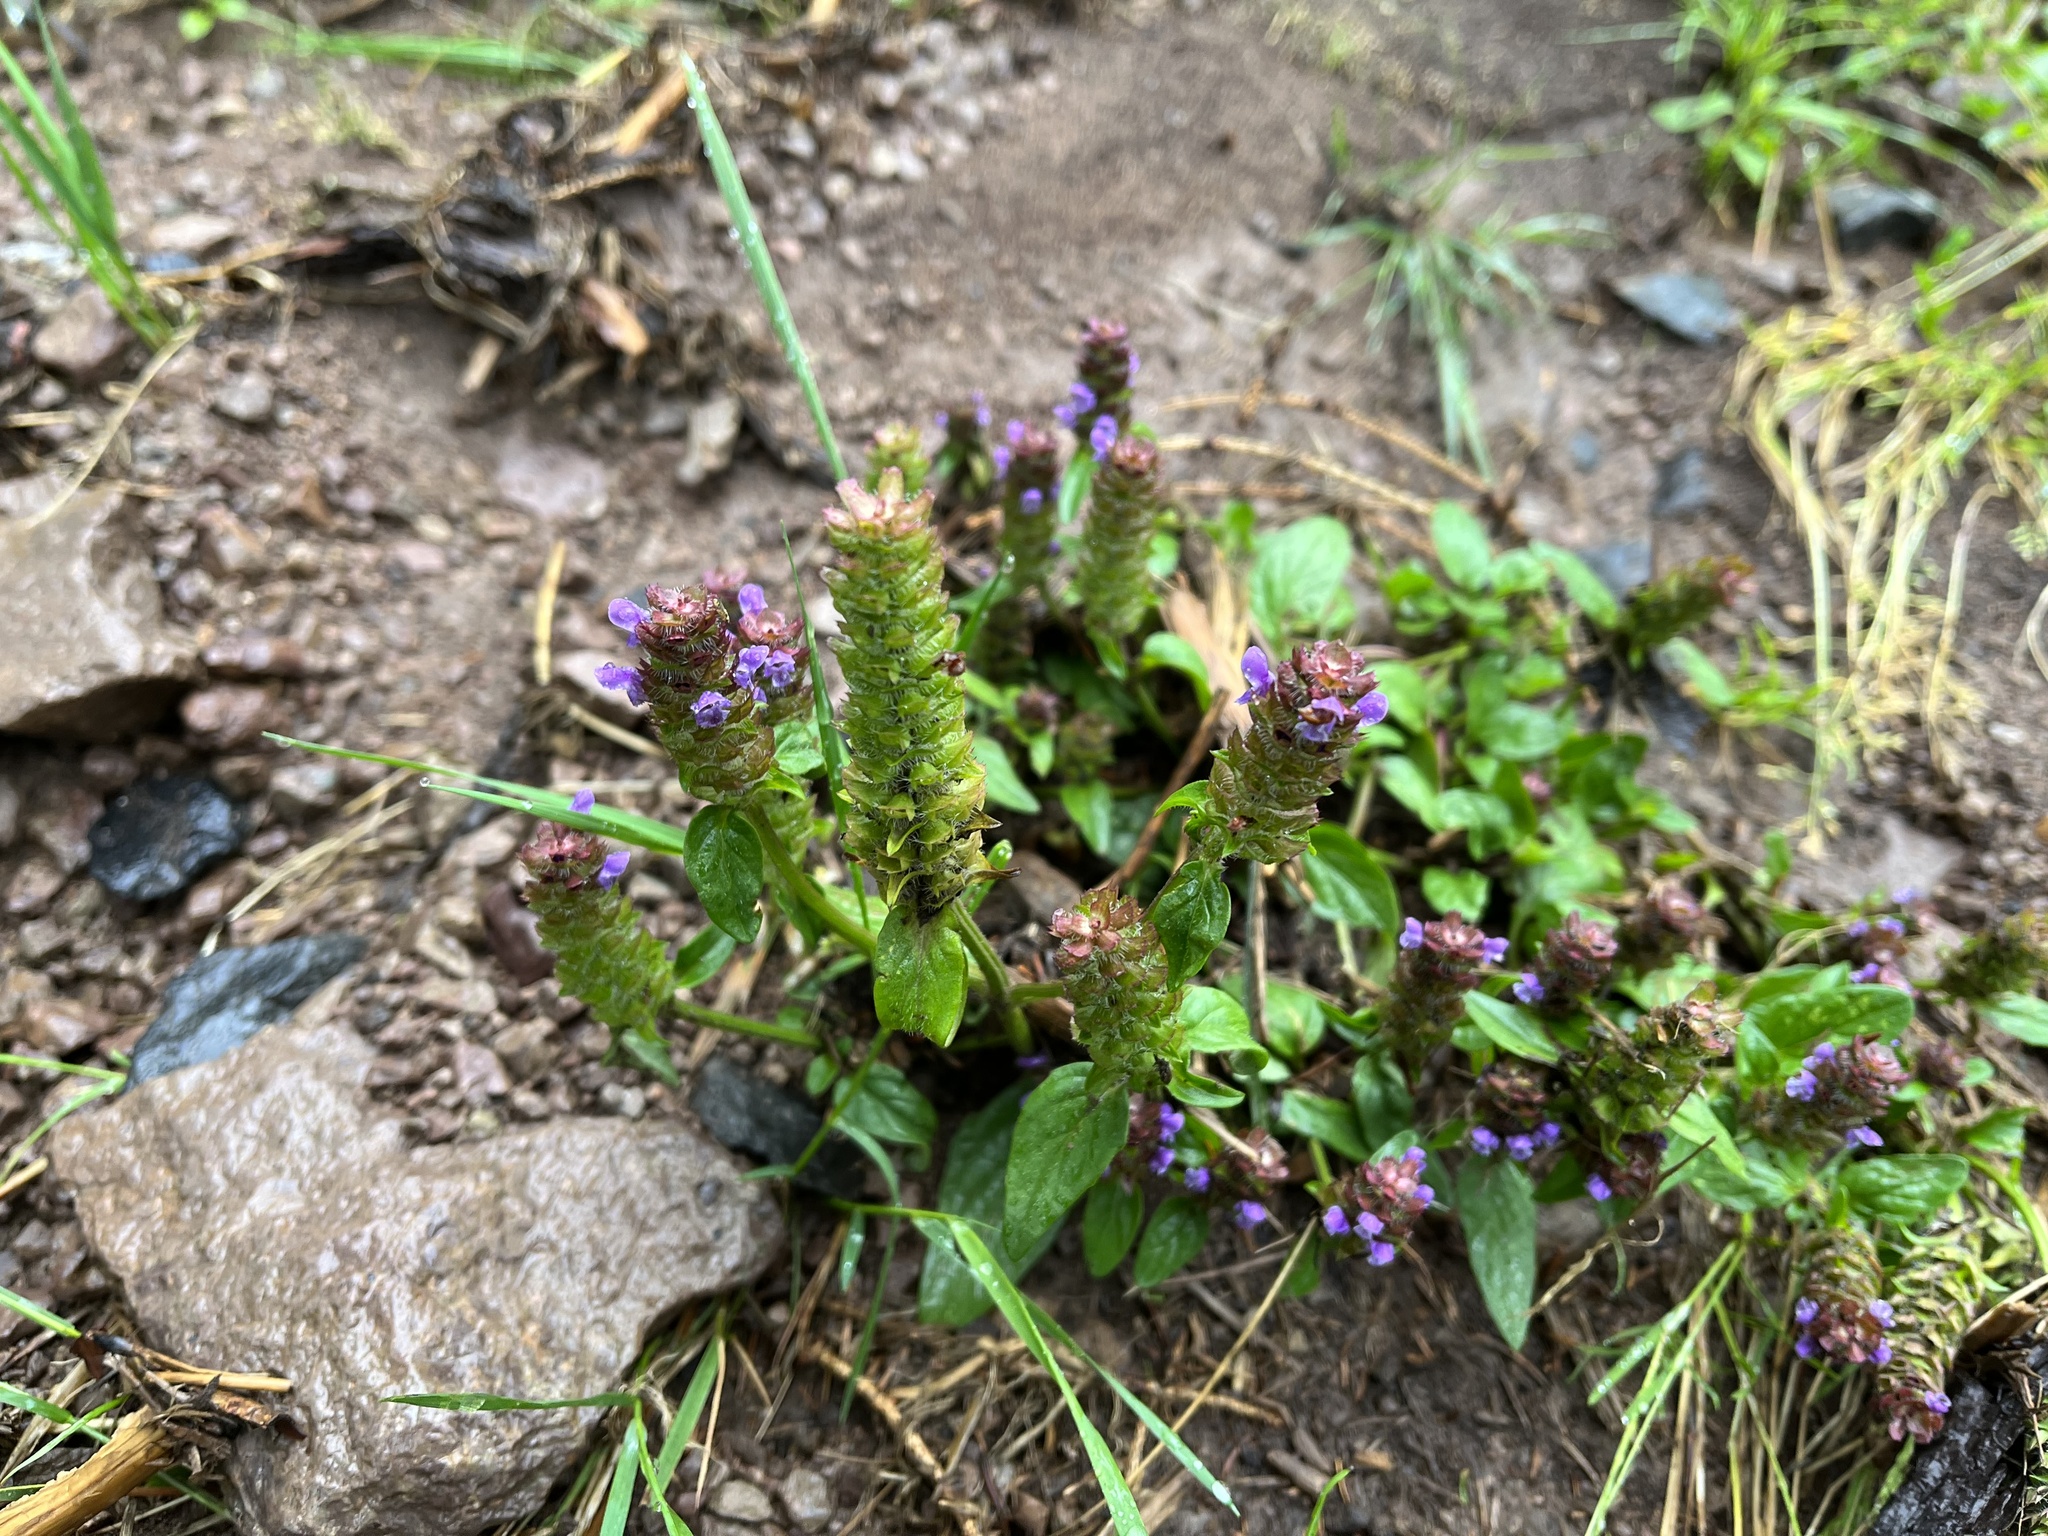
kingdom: Plantae
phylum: Tracheophyta
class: Magnoliopsida
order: Lamiales
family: Lamiaceae
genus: Prunella
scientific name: Prunella vulgaris
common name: Heal-all
